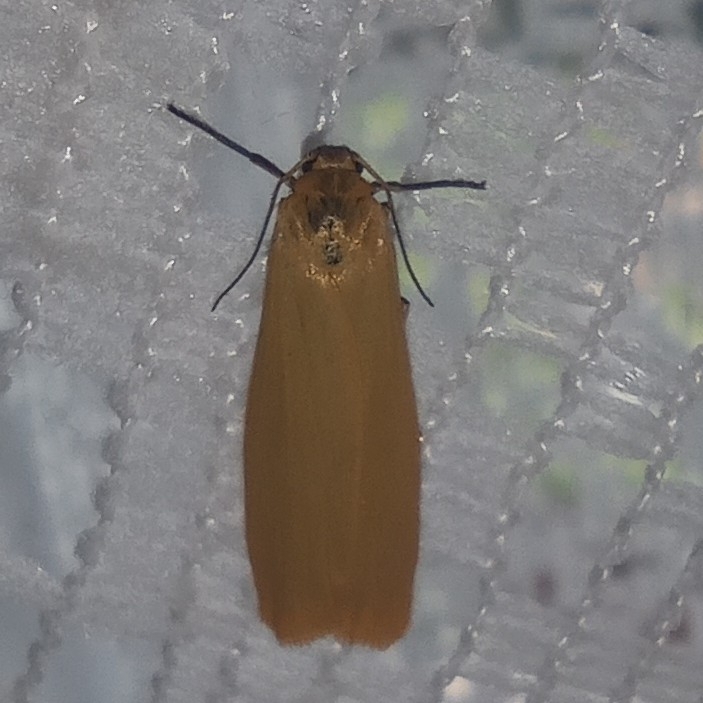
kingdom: Animalia
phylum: Arthropoda
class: Insecta
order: Lepidoptera
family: Erebidae
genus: Wittia
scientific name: Wittia sororcula
